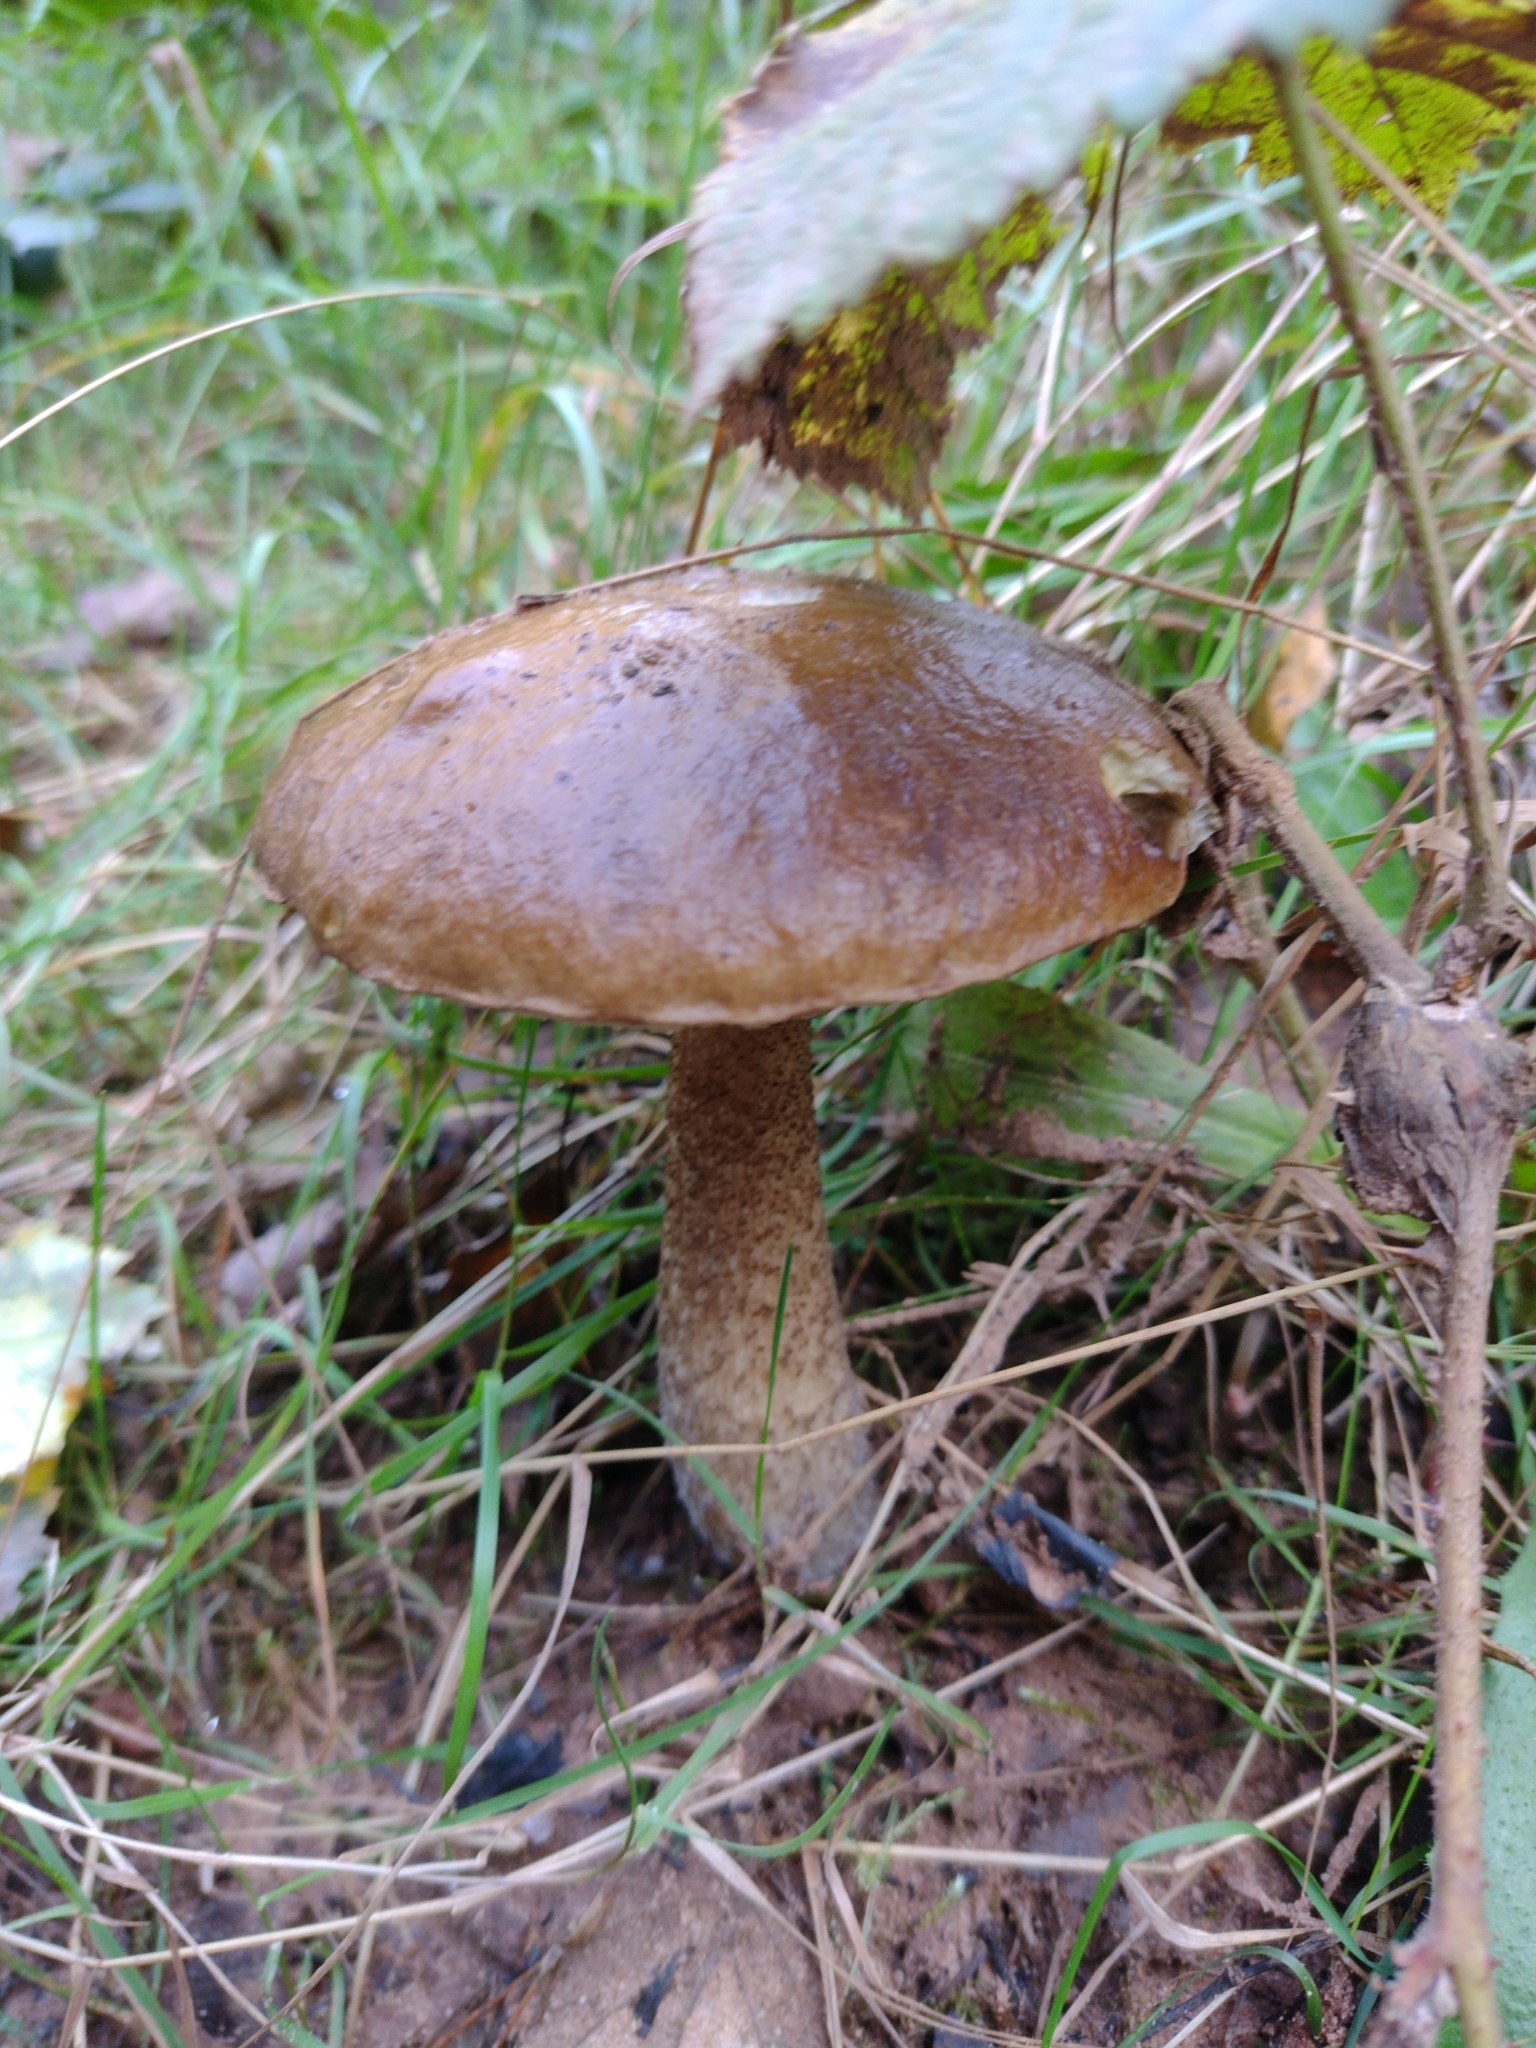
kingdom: Fungi
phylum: Basidiomycota
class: Agaricomycetes
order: Boletales
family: Boletaceae
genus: Leccinum
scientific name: Leccinum scabrum
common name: Blushing bolete
